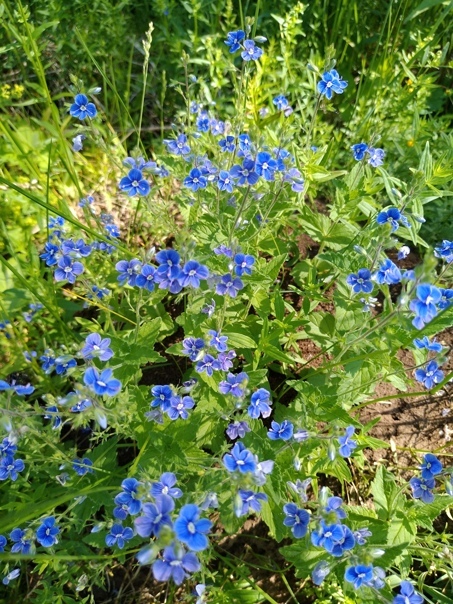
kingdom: Plantae
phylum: Tracheophyta
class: Magnoliopsida
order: Lamiales
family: Plantaginaceae
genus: Veronica
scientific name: Veronica chamaedrys
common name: Germander speedwell
